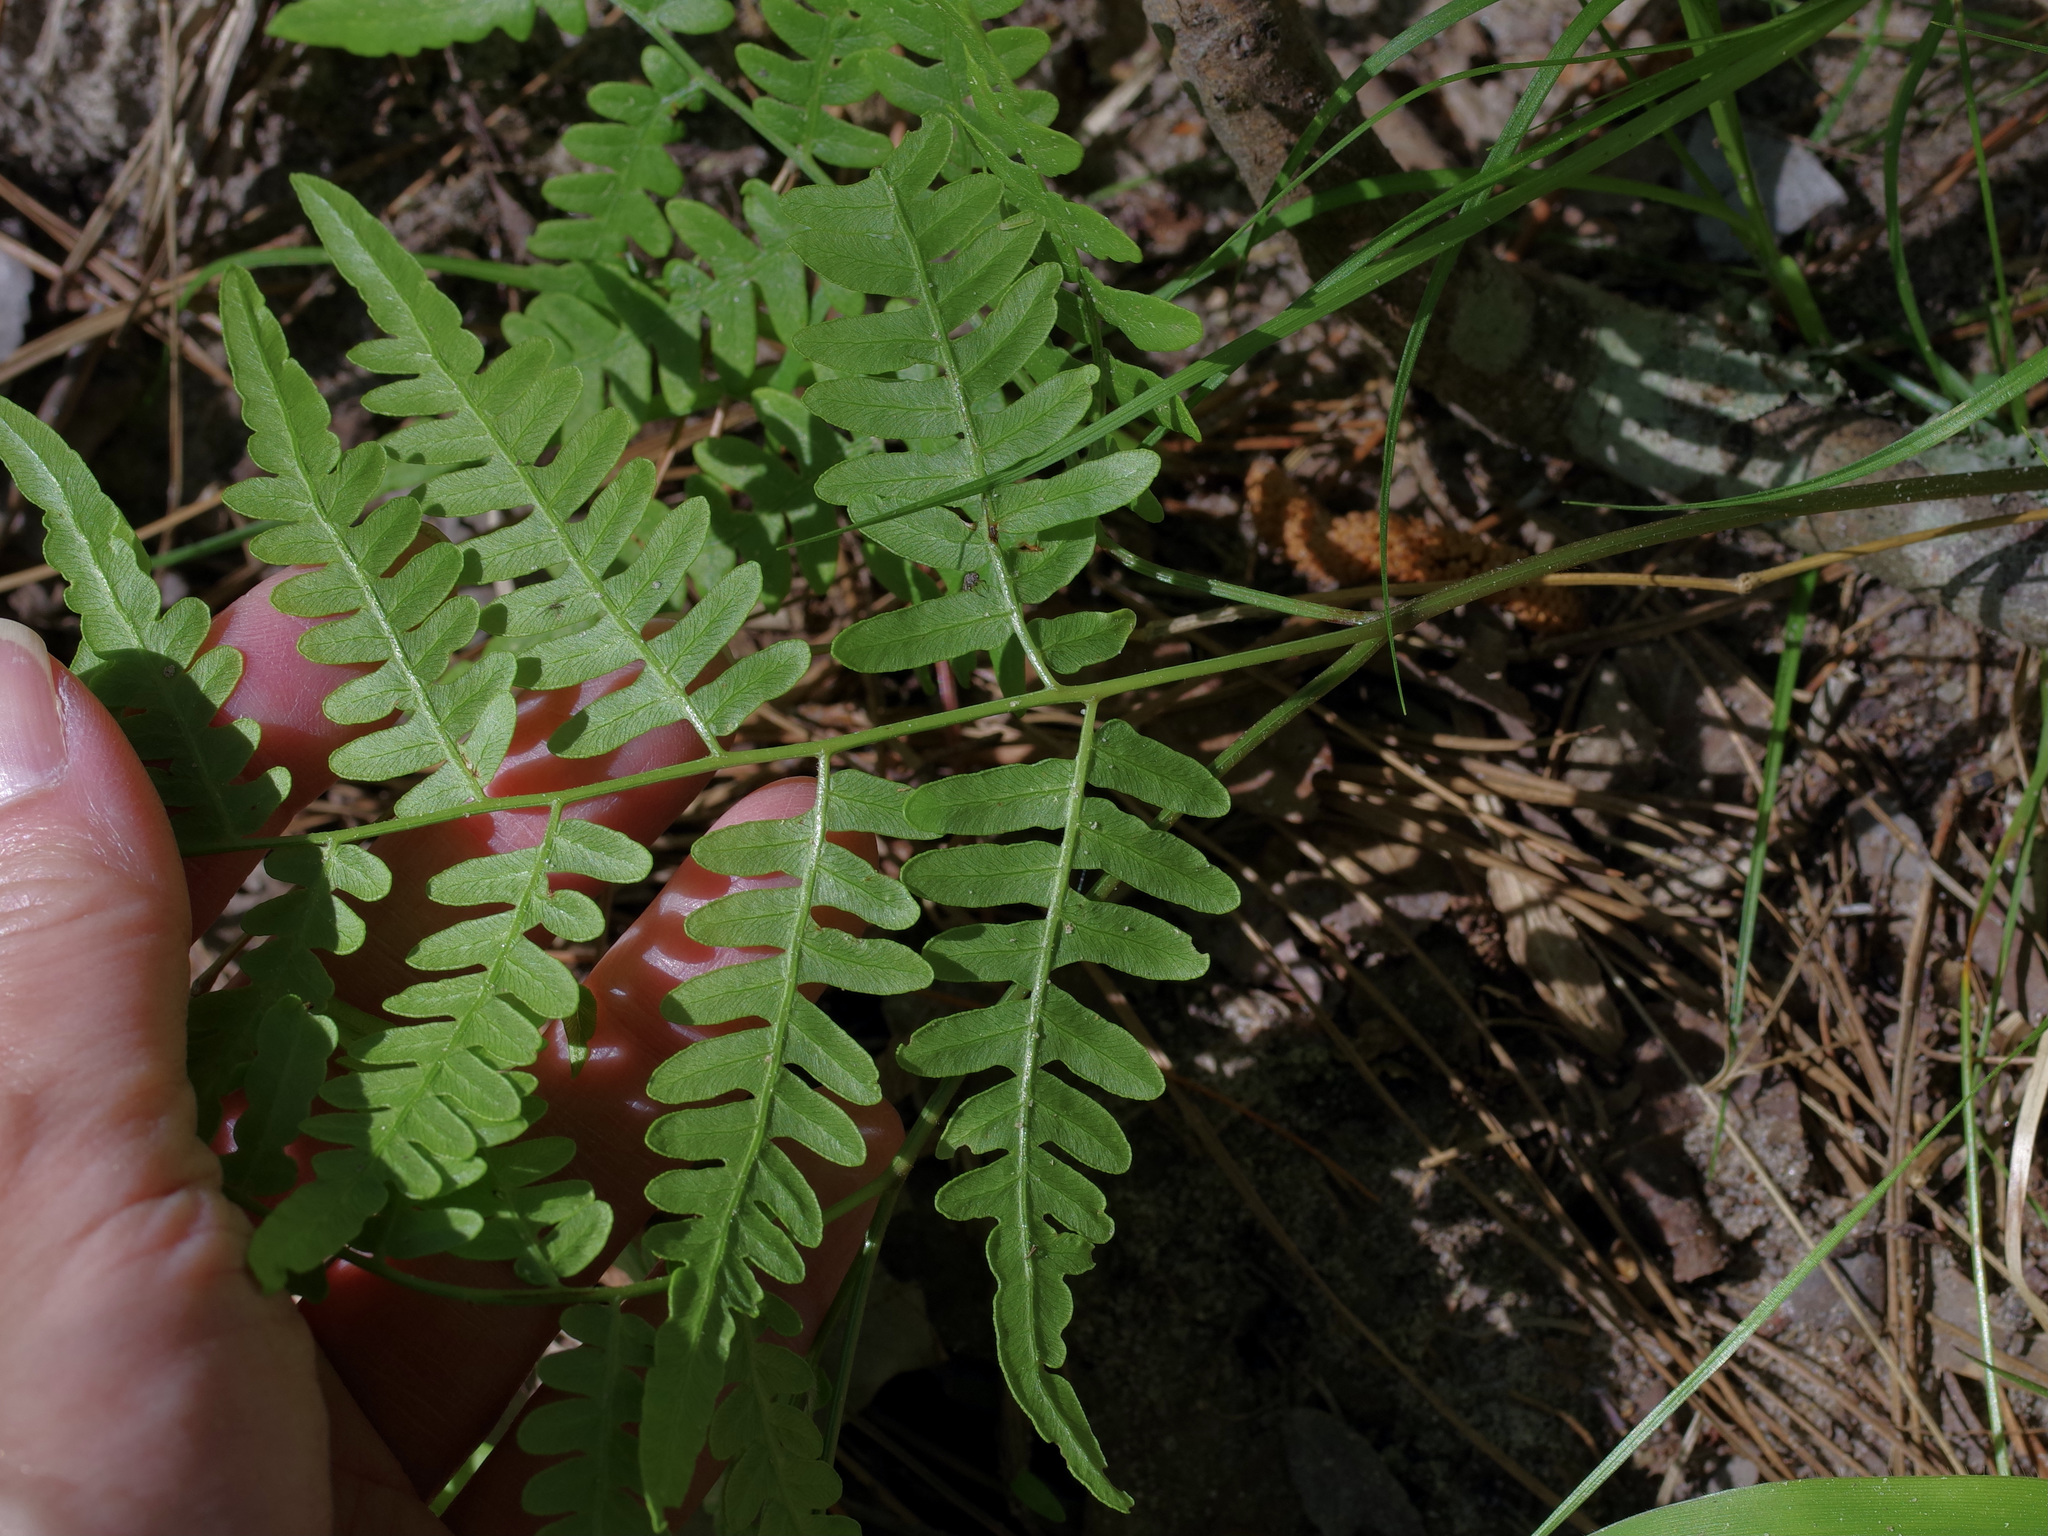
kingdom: Plantae
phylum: Tracheophyta
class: Polypodiopsida
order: Polypodiales
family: Dennstaedtiaceae
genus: Pteridium
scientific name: Pteridium aquilinum
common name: Bracken
